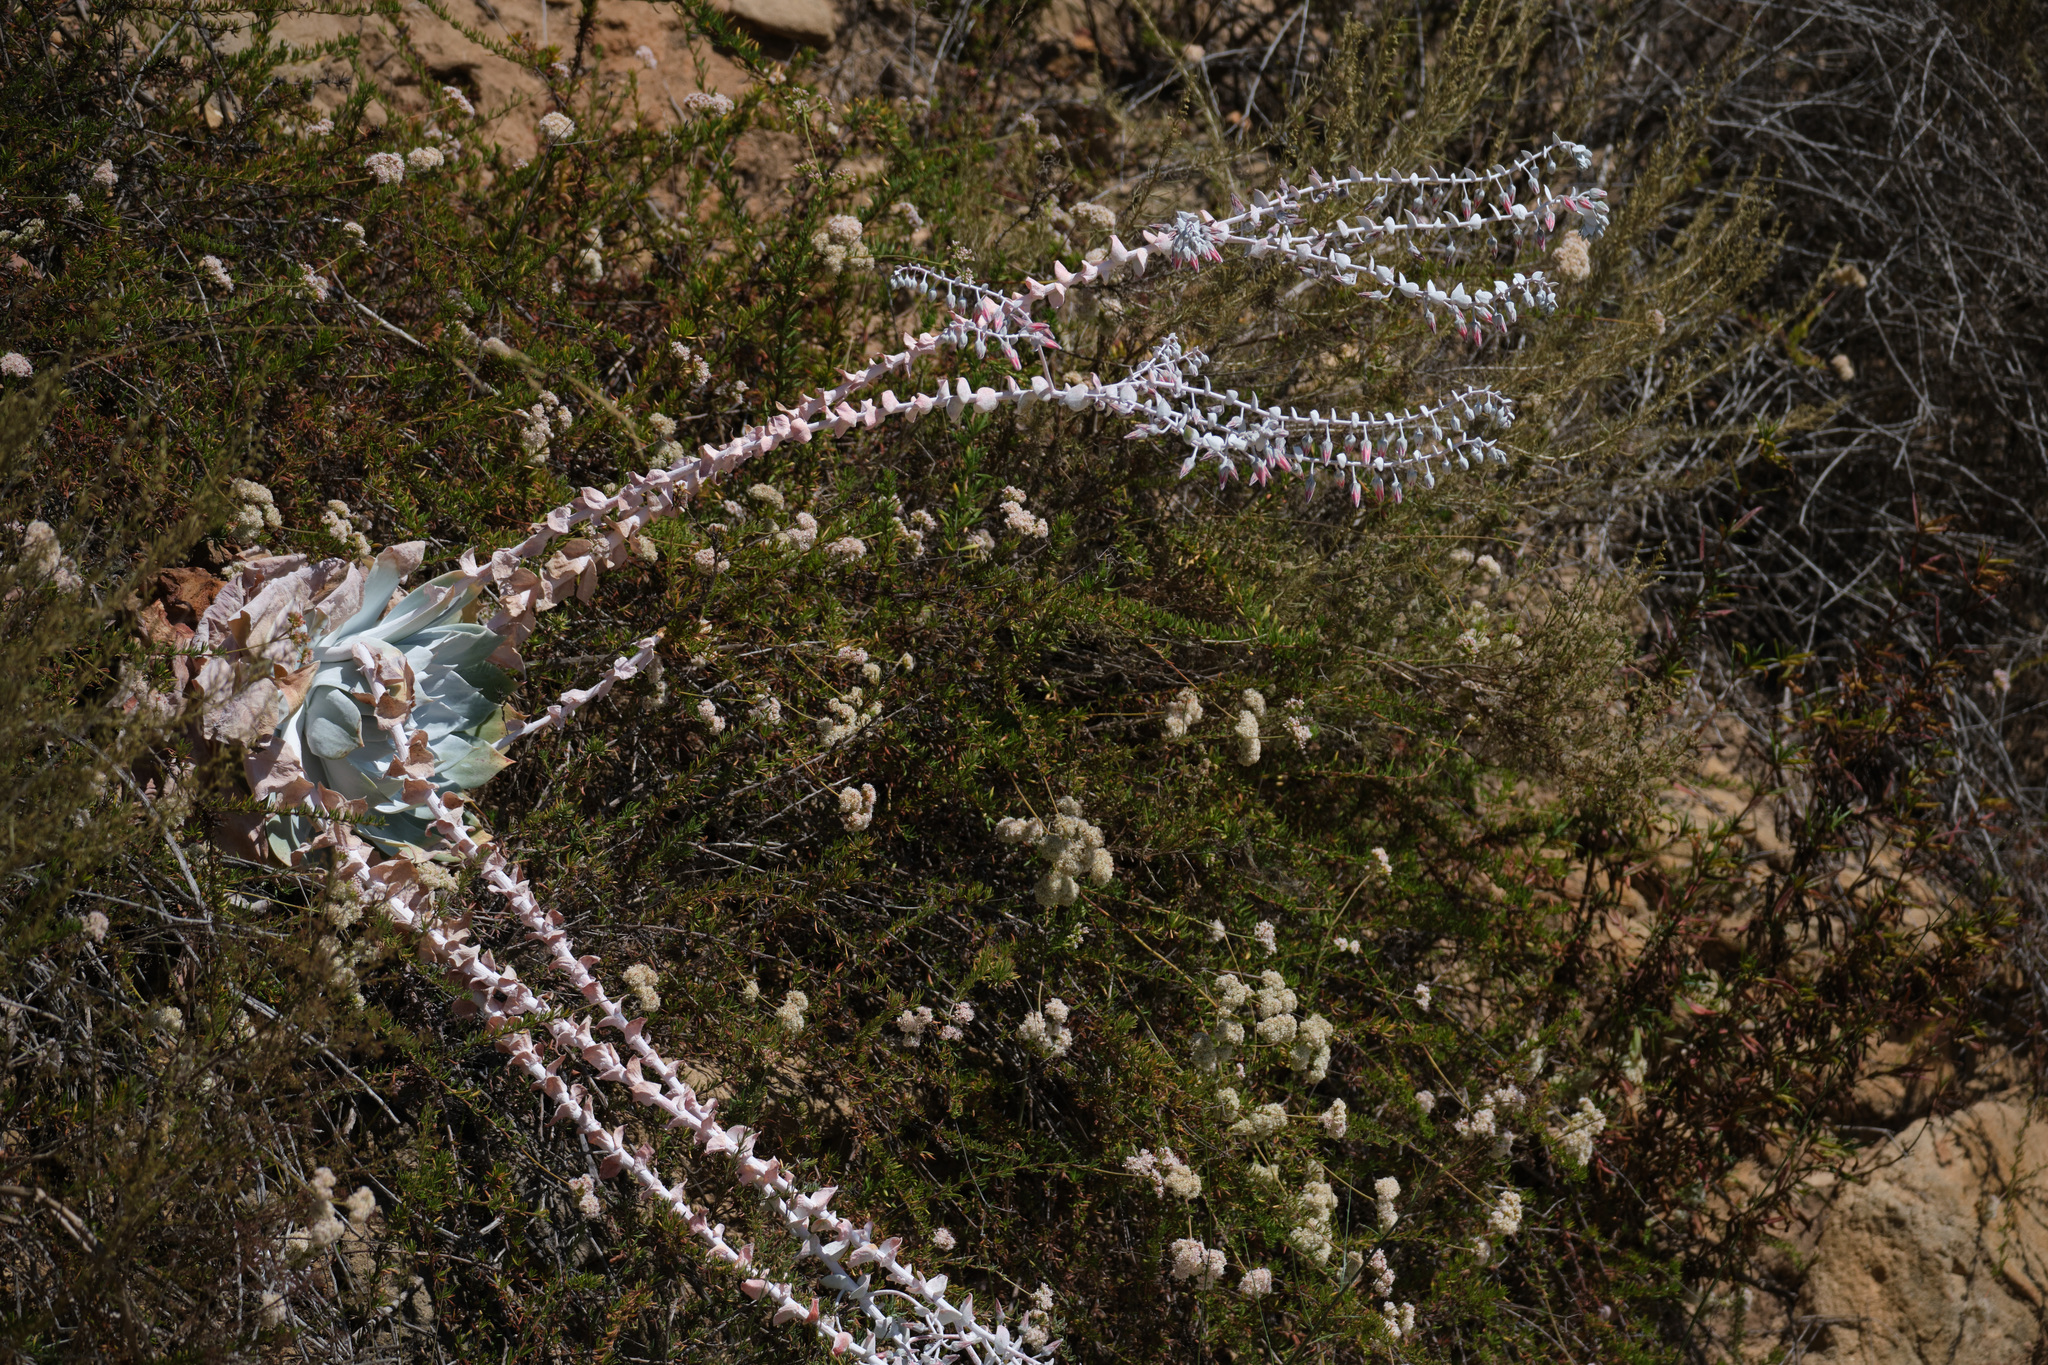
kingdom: Plantae
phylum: Tracheophyta
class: Magnoliopsida
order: Saxifragales
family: Crassulaceae
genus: Dudleya
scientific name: Dudleya pulverulenta
